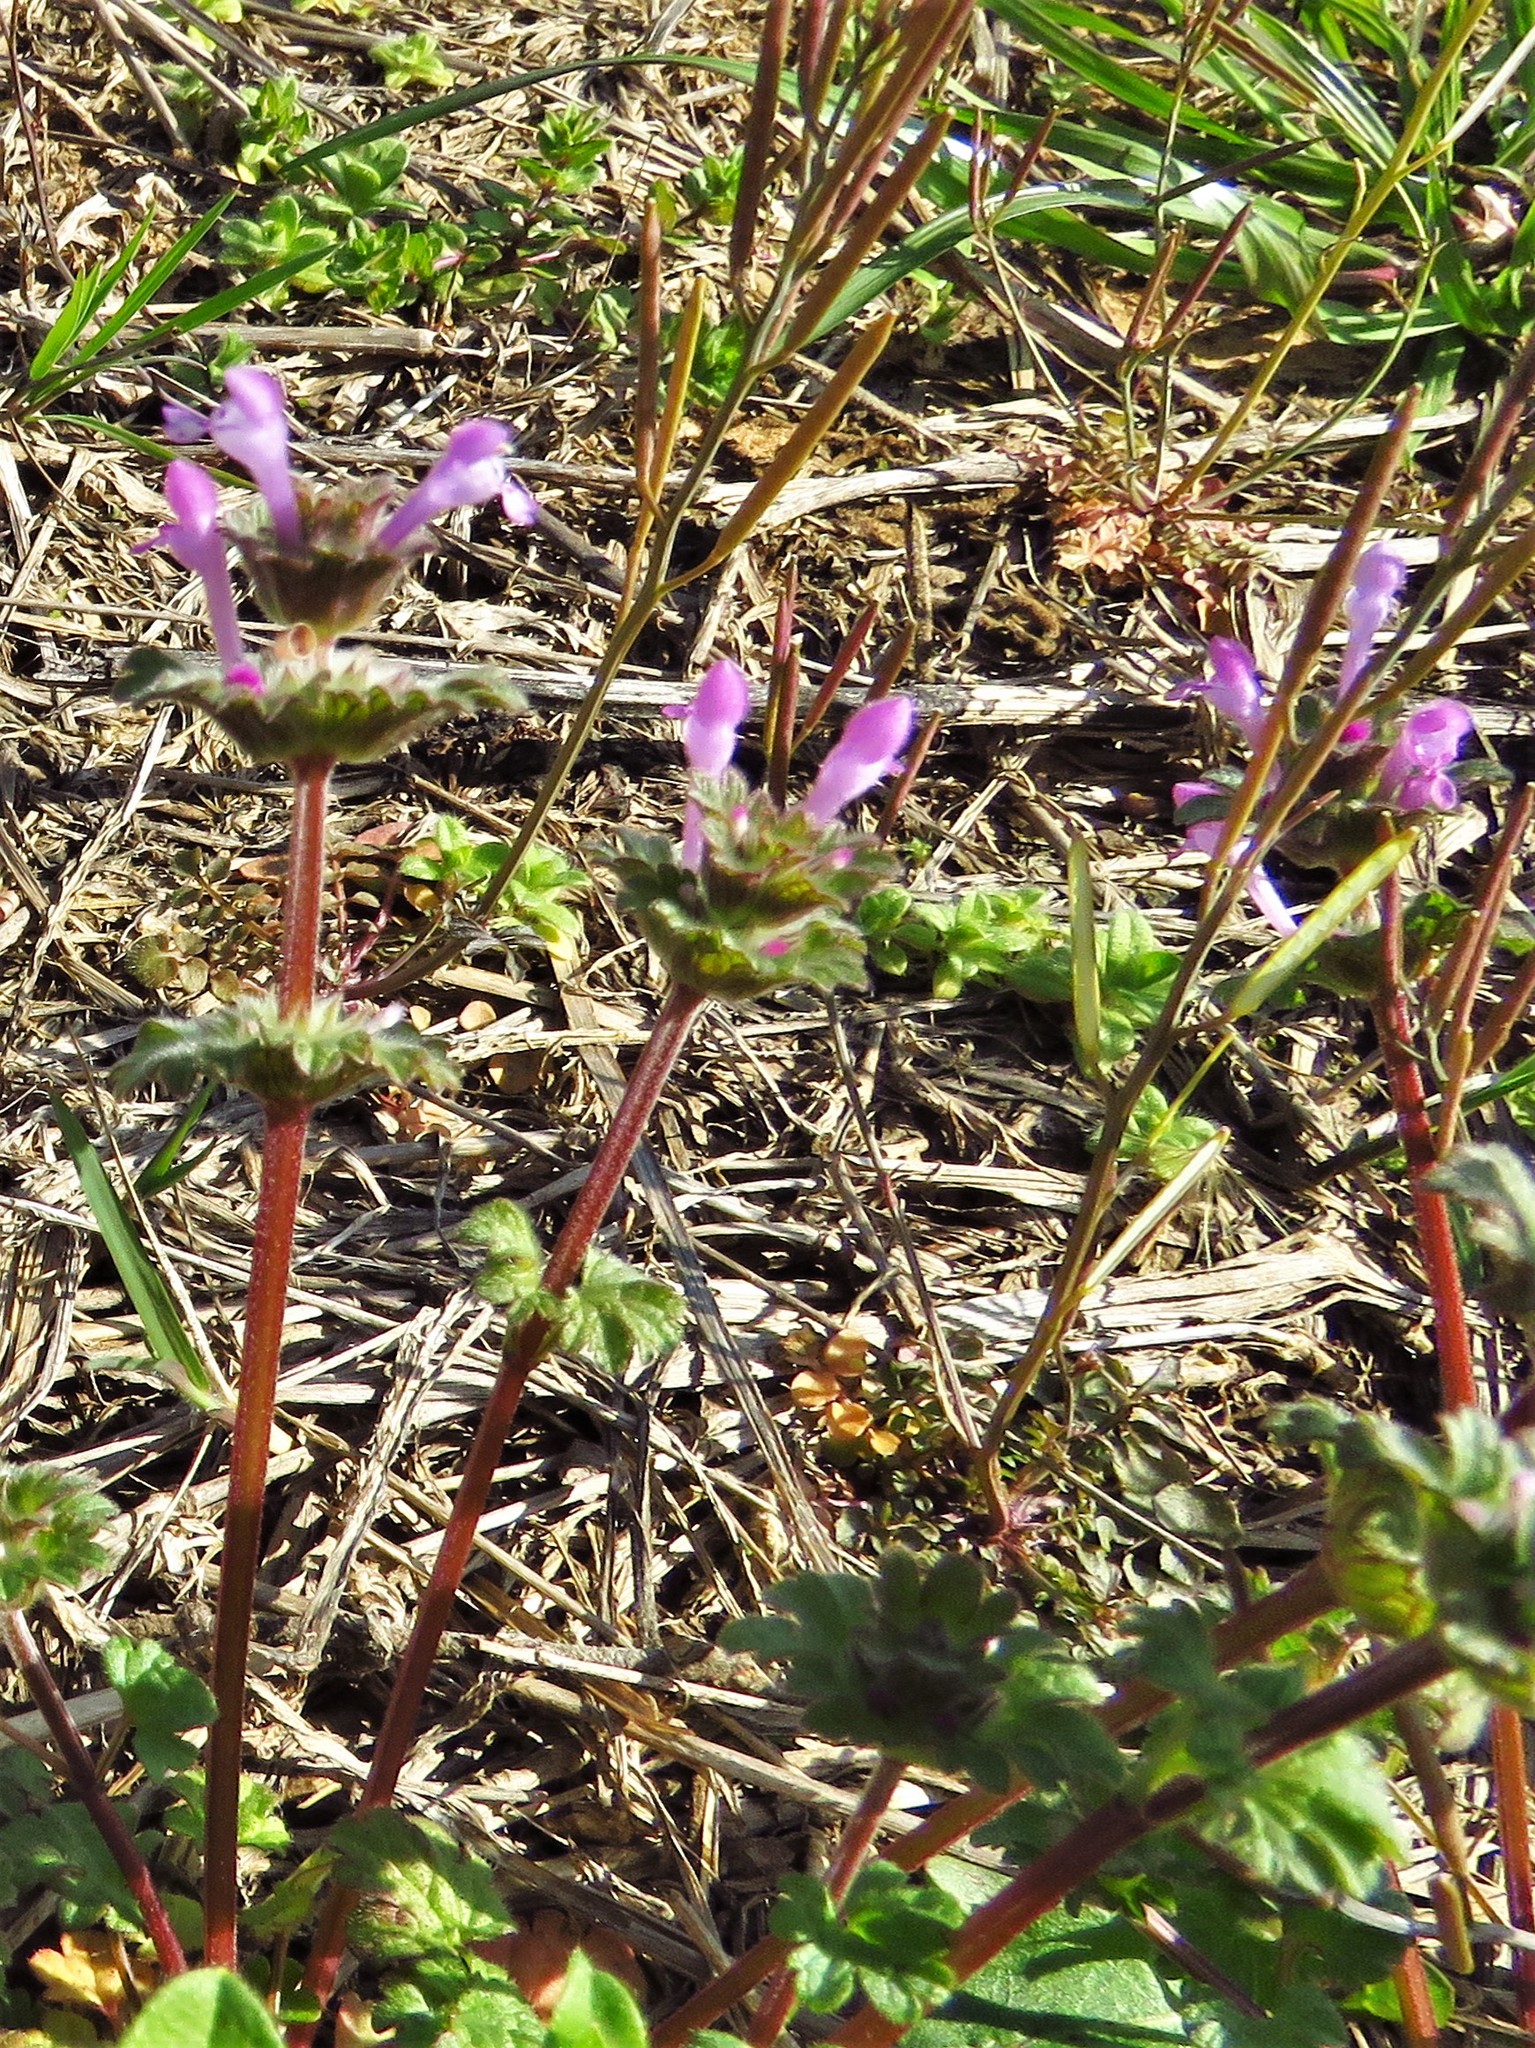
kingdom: Plantae
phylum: Tracheophyta
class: Magnoliopsida
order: Lamiales
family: Lamiaceae
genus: Lamium
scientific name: Lamium amplexicaule
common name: Henbit dead-nettle
